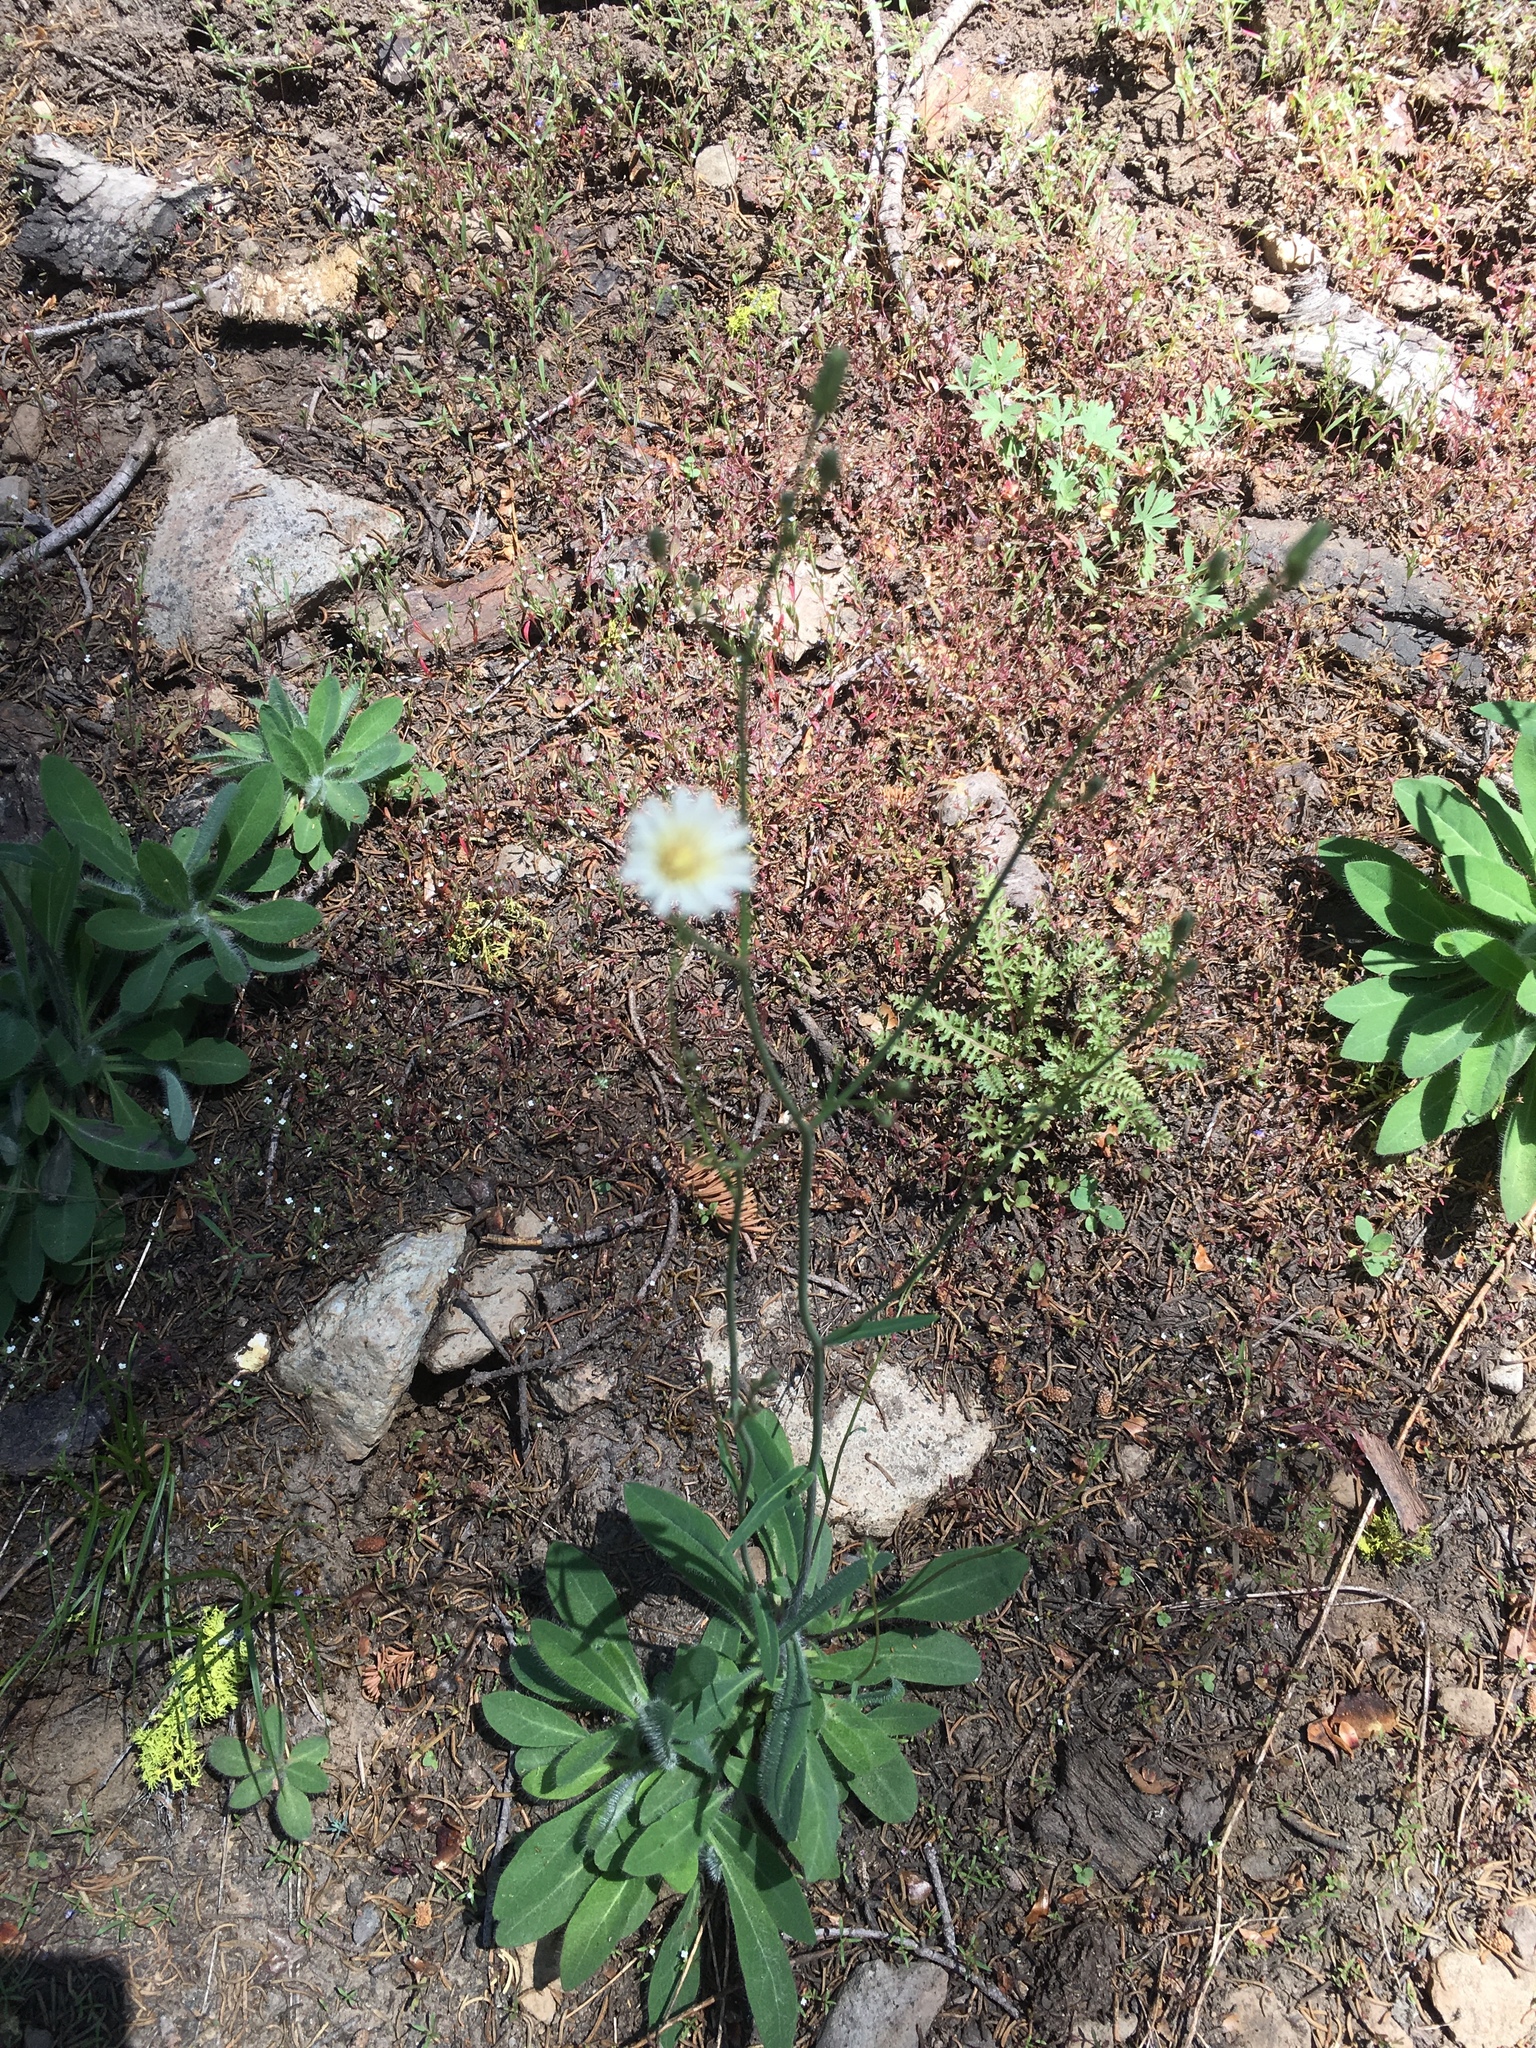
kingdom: Plantae
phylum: Tracheophyta
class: Magnoliopsida
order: Asterales
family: Asteraceae
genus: Hieracium
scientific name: Hieracium albiflorum
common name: White hawkweed
